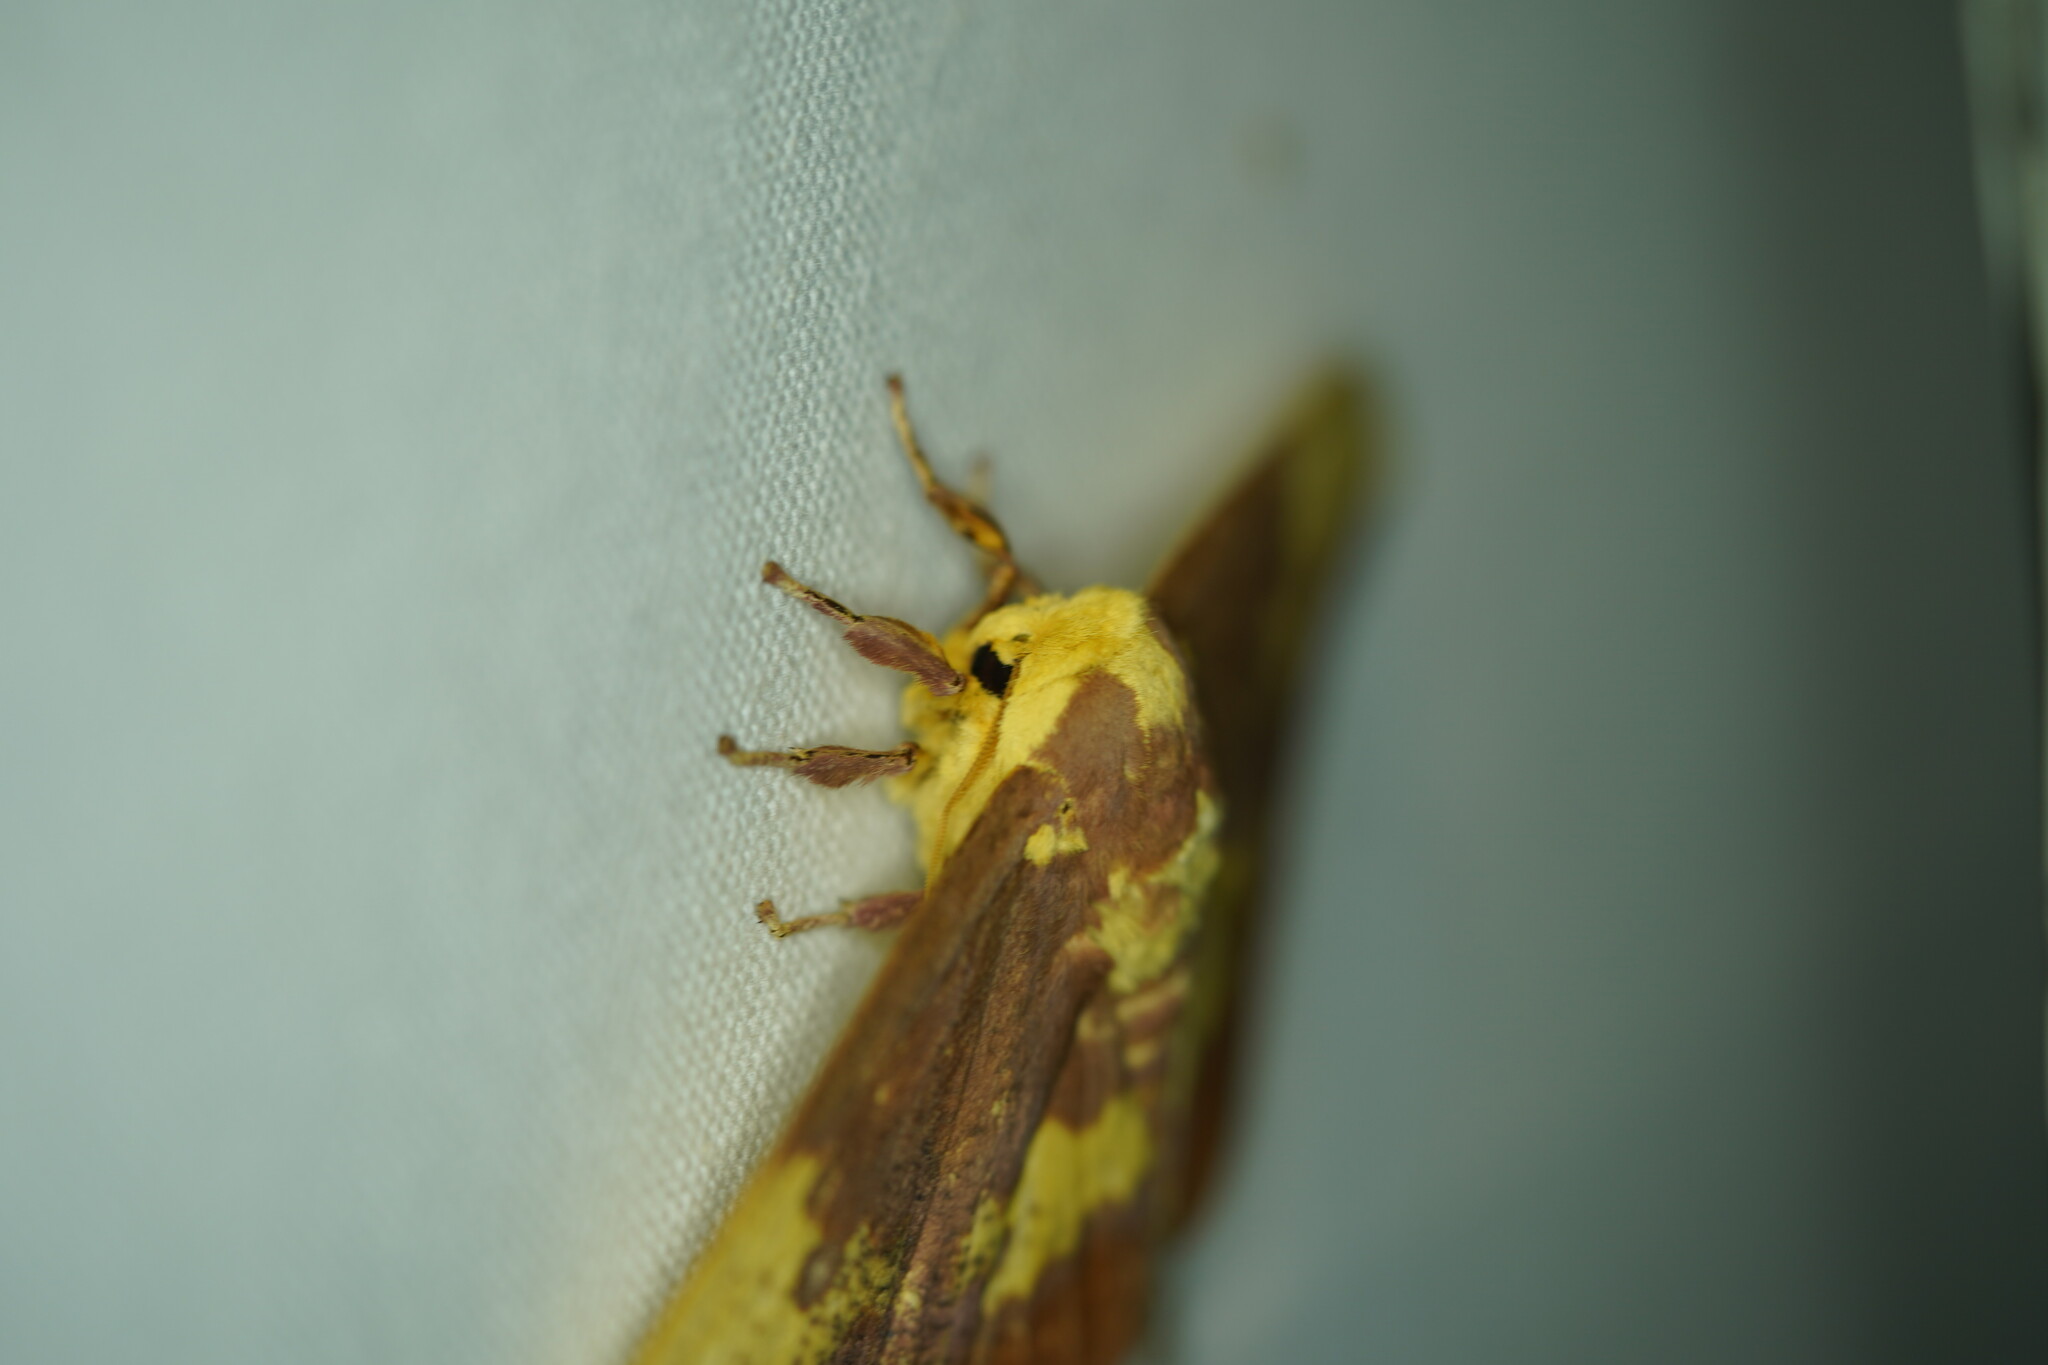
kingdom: Animalia
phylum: Arthropoda
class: Insecta
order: Lepidoptera
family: Saturniidae
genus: Eacles
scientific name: Eacles imperialis
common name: Imperial moth
